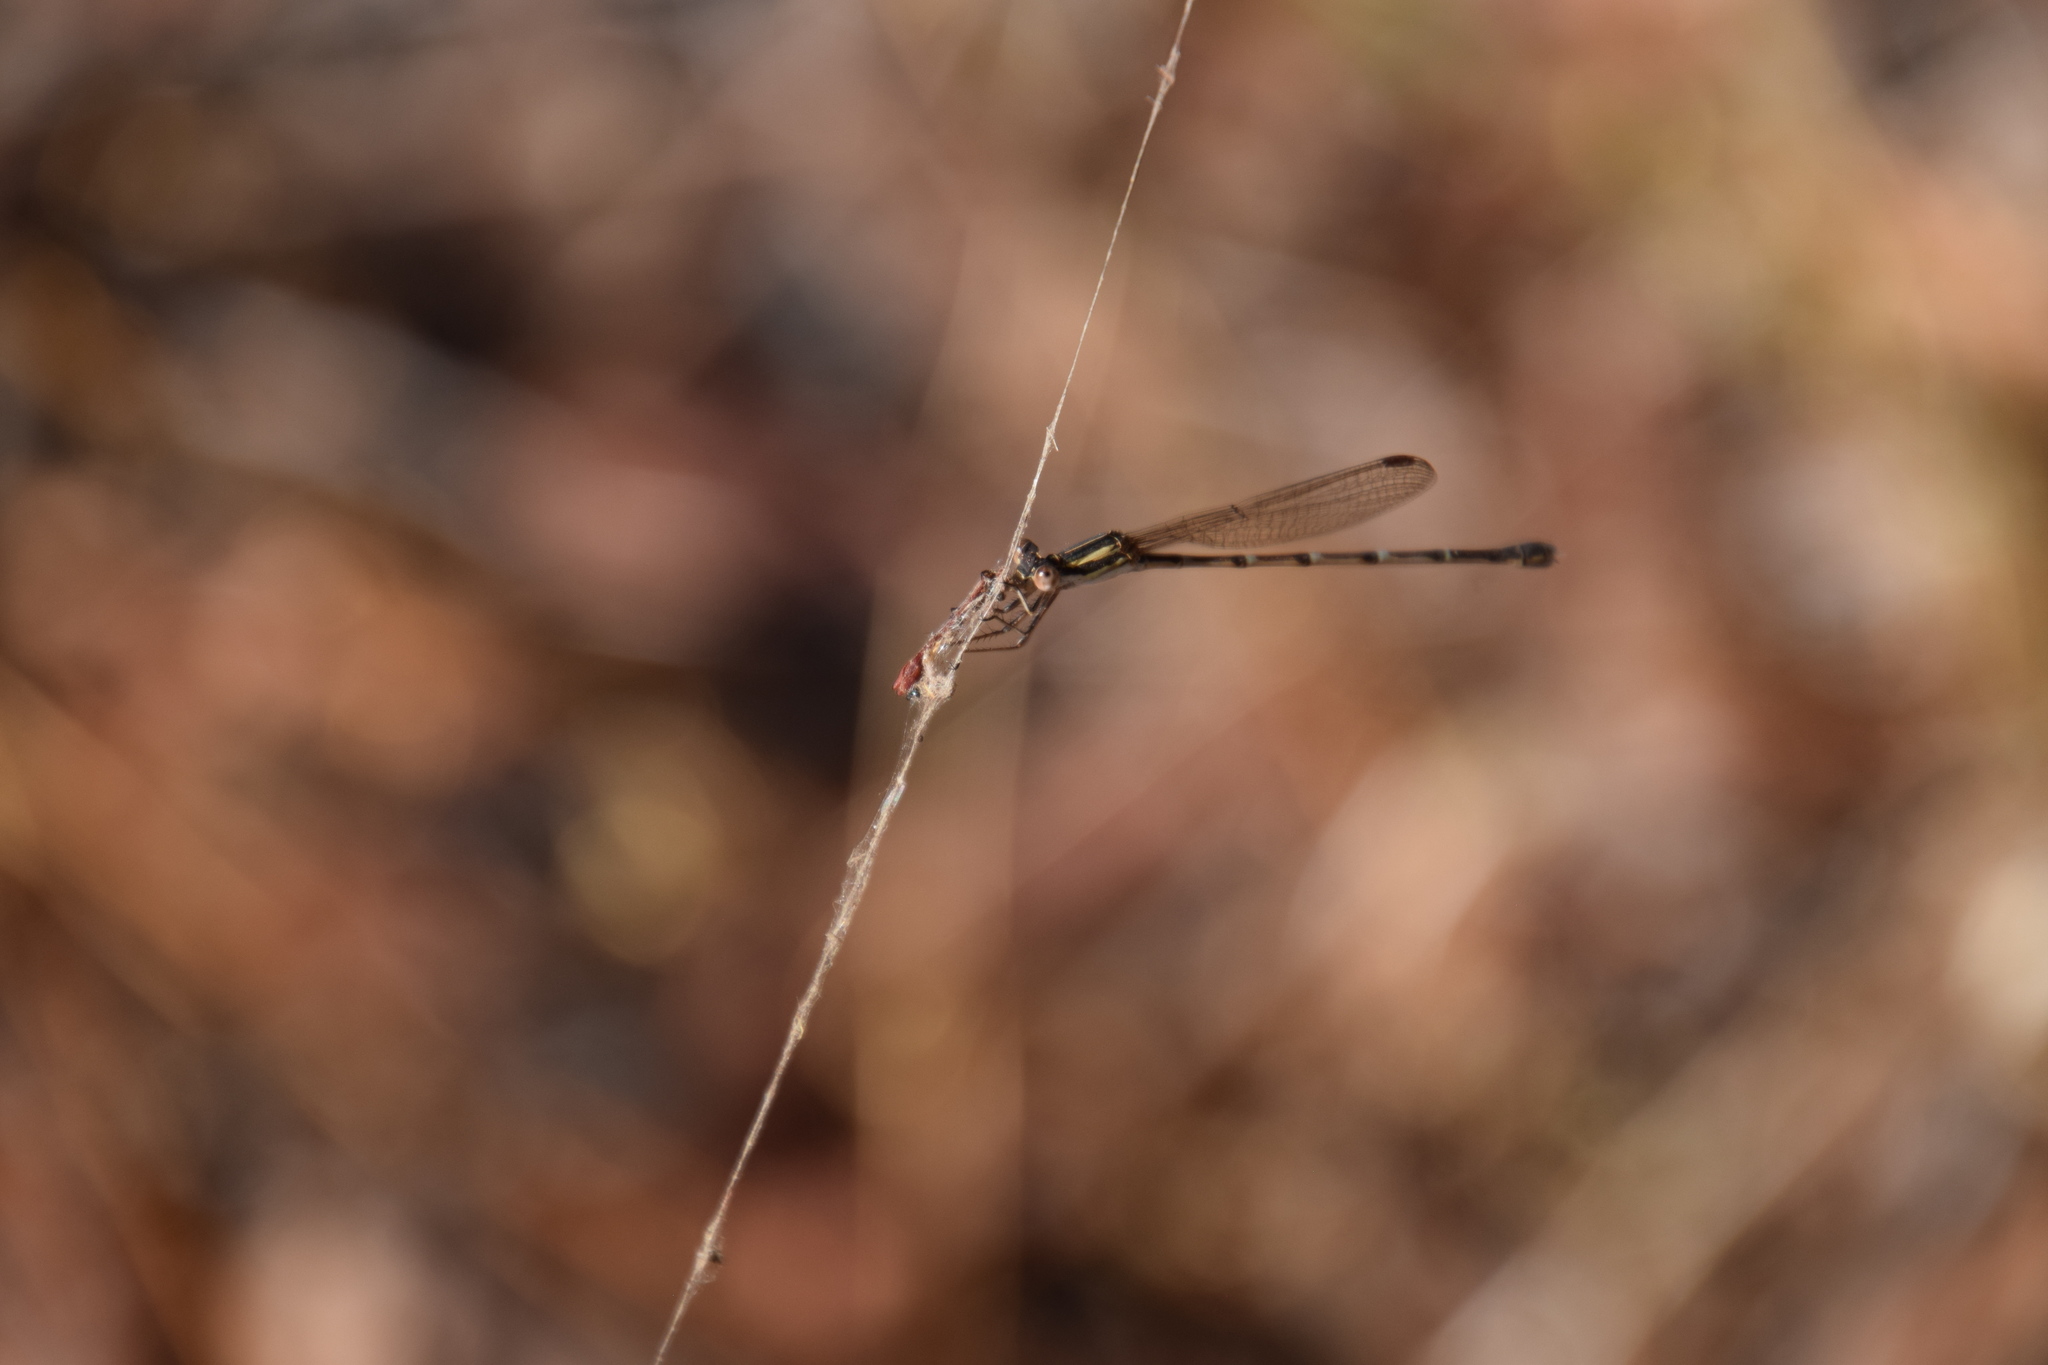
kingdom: Animalia
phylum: Arthropoda
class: Insecta
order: Odonata
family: Lestidae
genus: Austrolestes
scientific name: Austrolestes analis
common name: Slender ringtail
